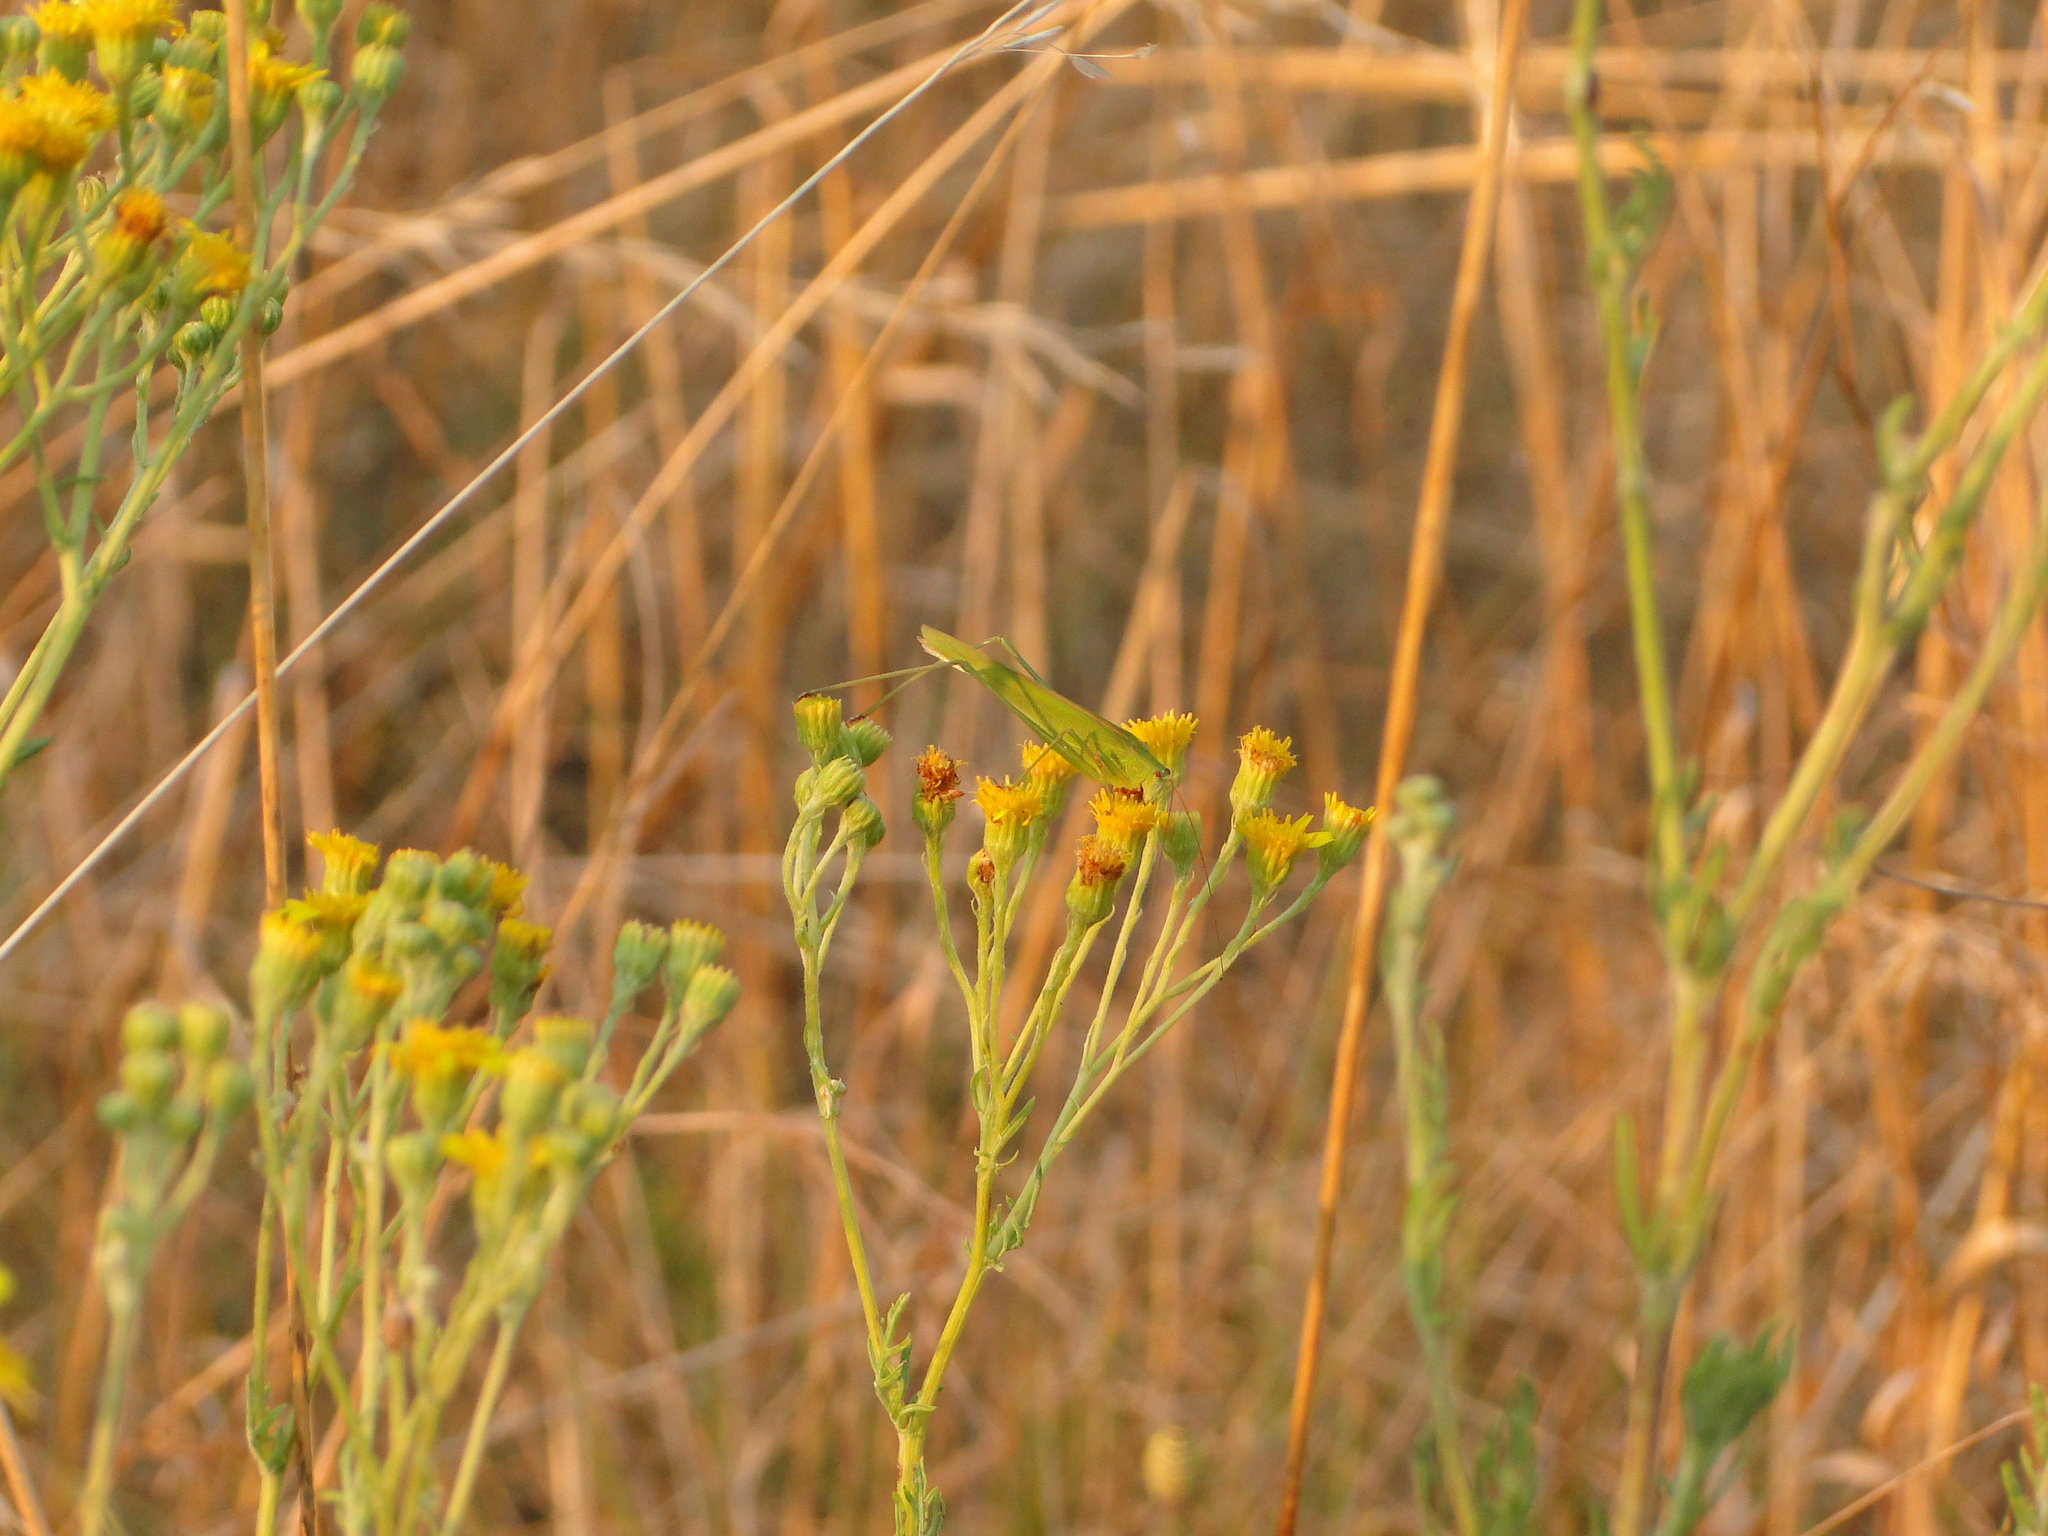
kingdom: Animalia
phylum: Arthropoda
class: Insecta
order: Orthoptera
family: Tettigoniidae
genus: Phaneroptera
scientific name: Phaneroptera falcata
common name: Sickle-bearing bush-cricket
